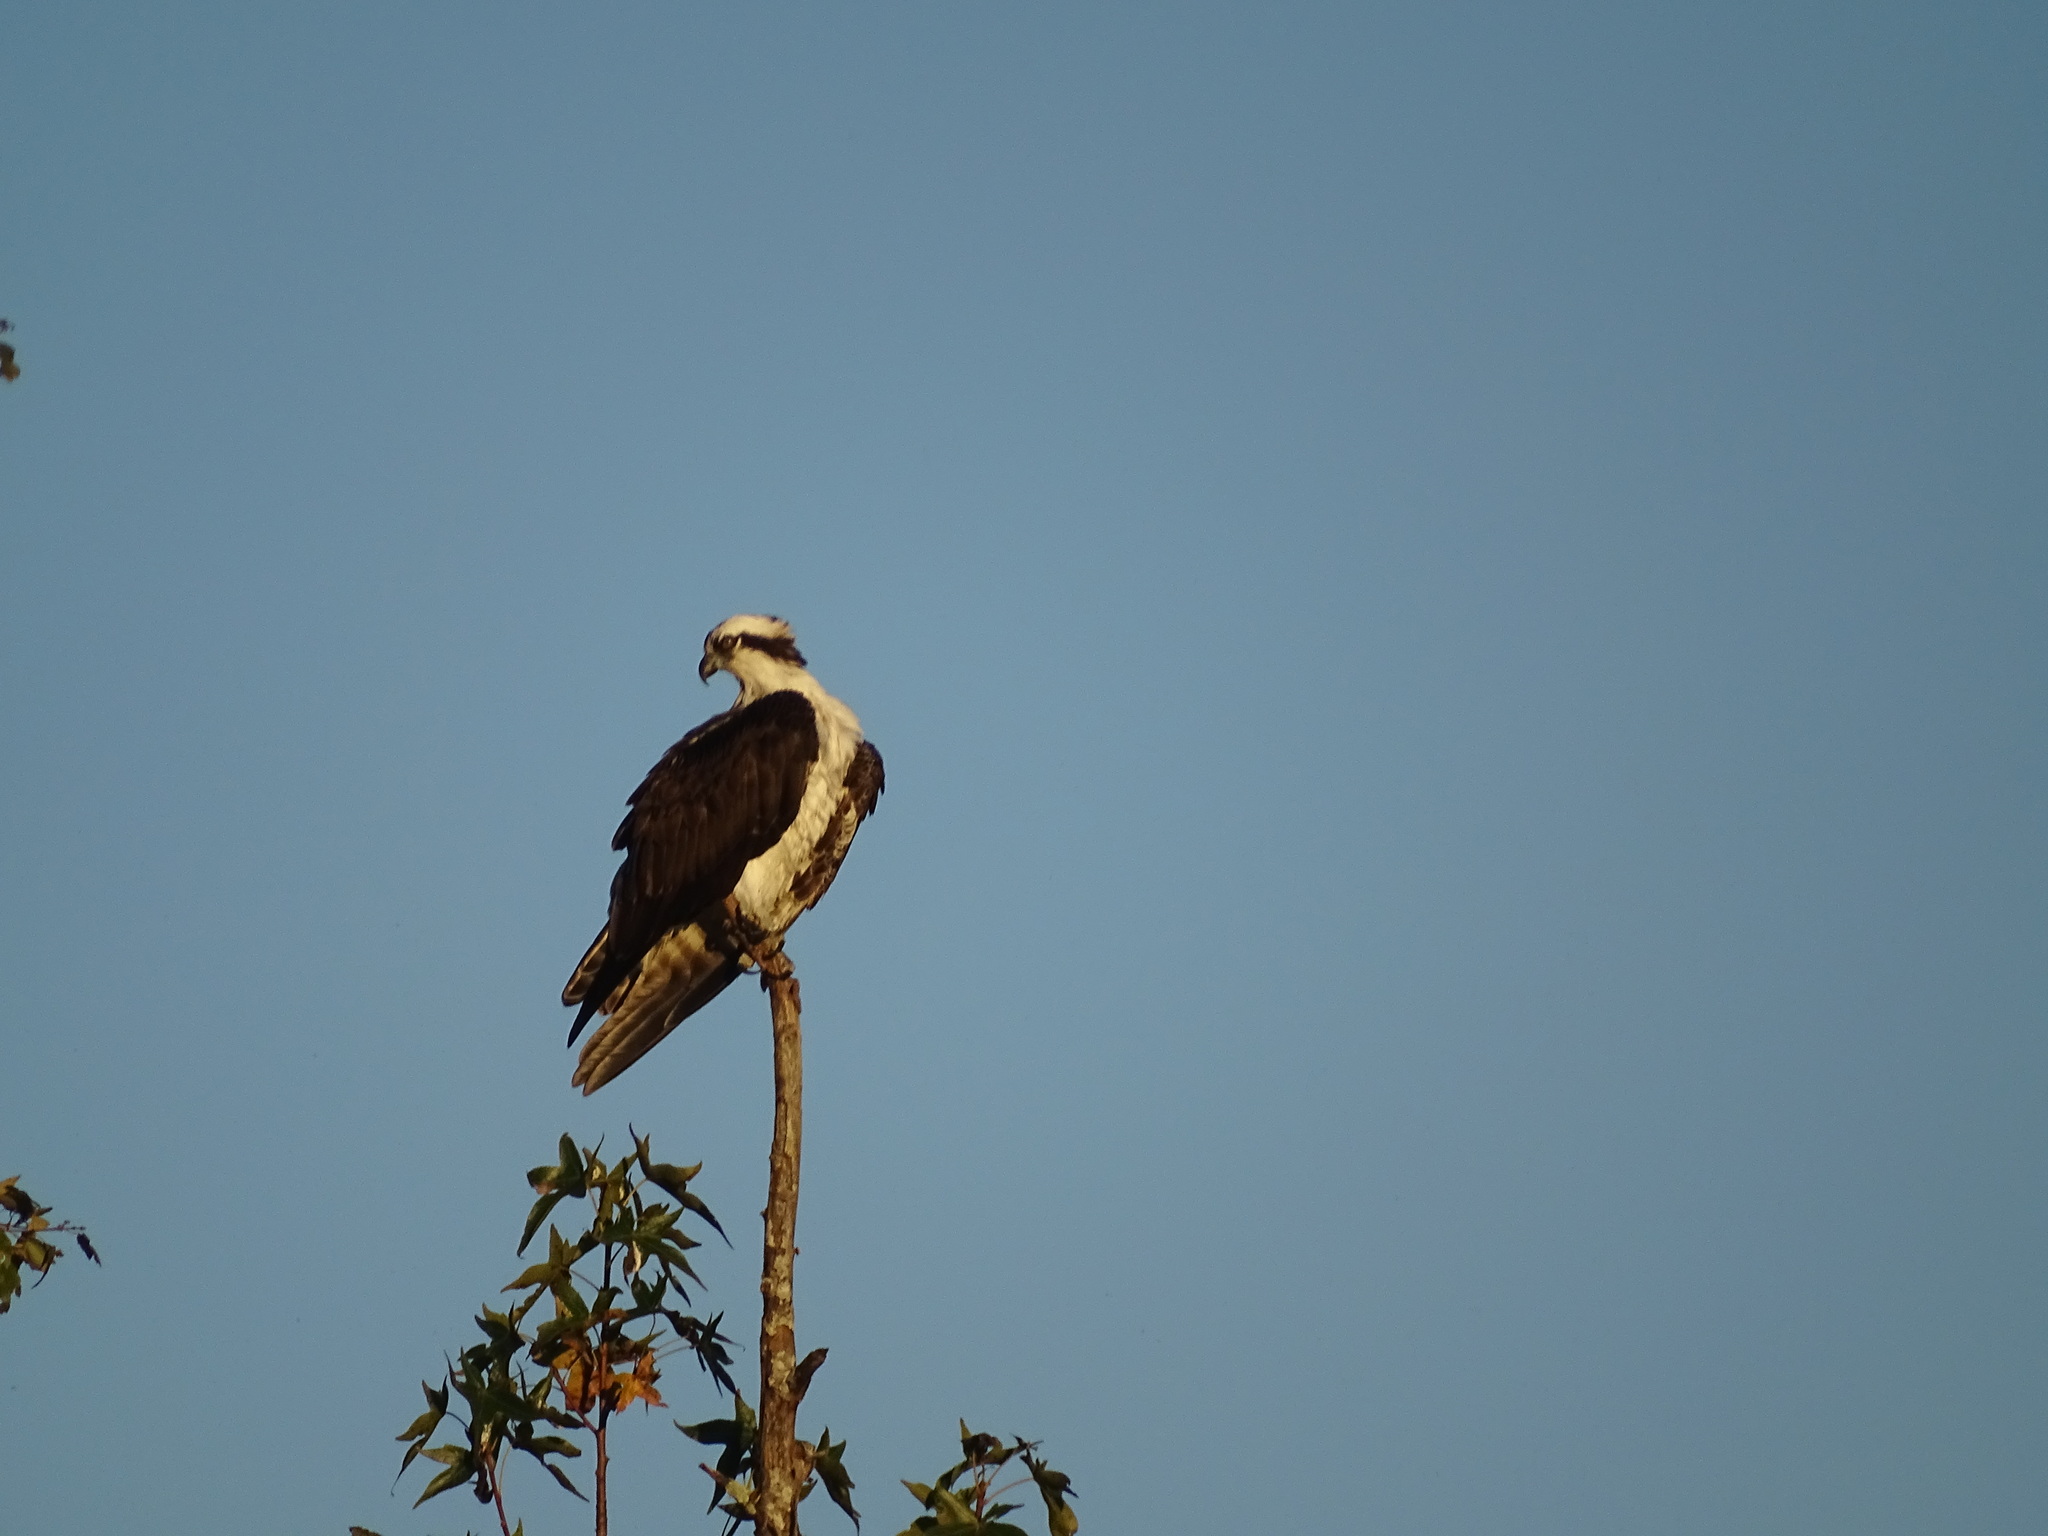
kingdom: Animalia
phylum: Chordata
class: Aves
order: Accipitriformes
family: Pandionidae
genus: Pandion
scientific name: Pandion haliaetus
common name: Osprey
